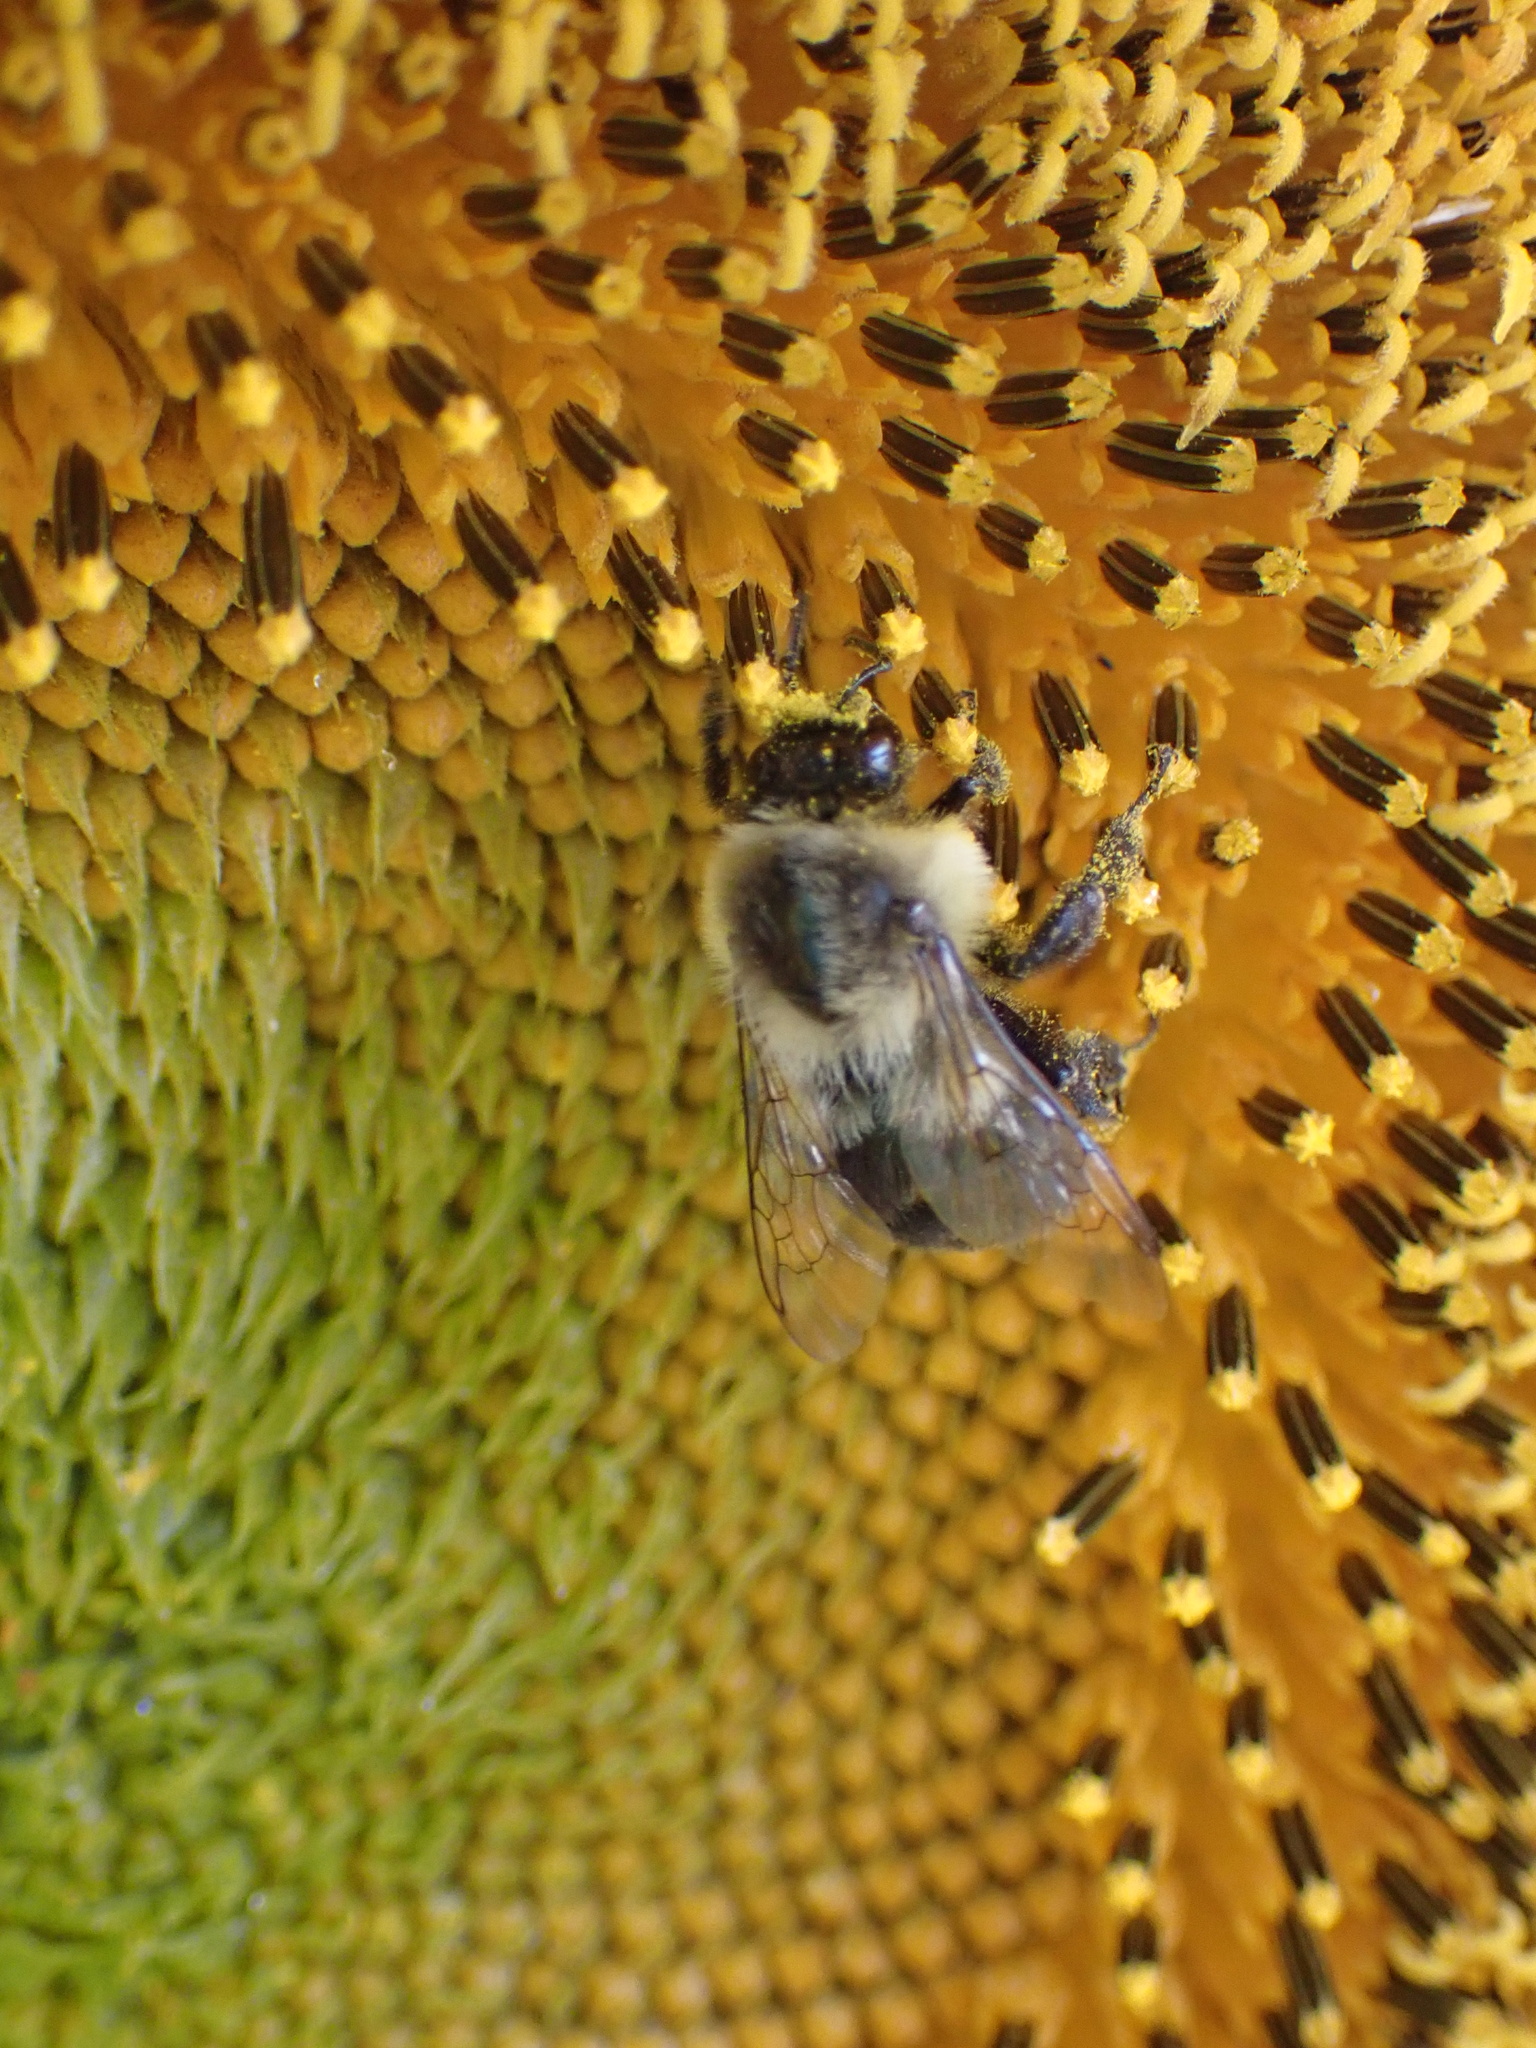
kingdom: Animalia
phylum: Arthropoda
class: Insecta
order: Hymenoptera
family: Apidae
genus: Bombus
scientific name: Bombus impatiens
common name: Common eastern bumble bee
